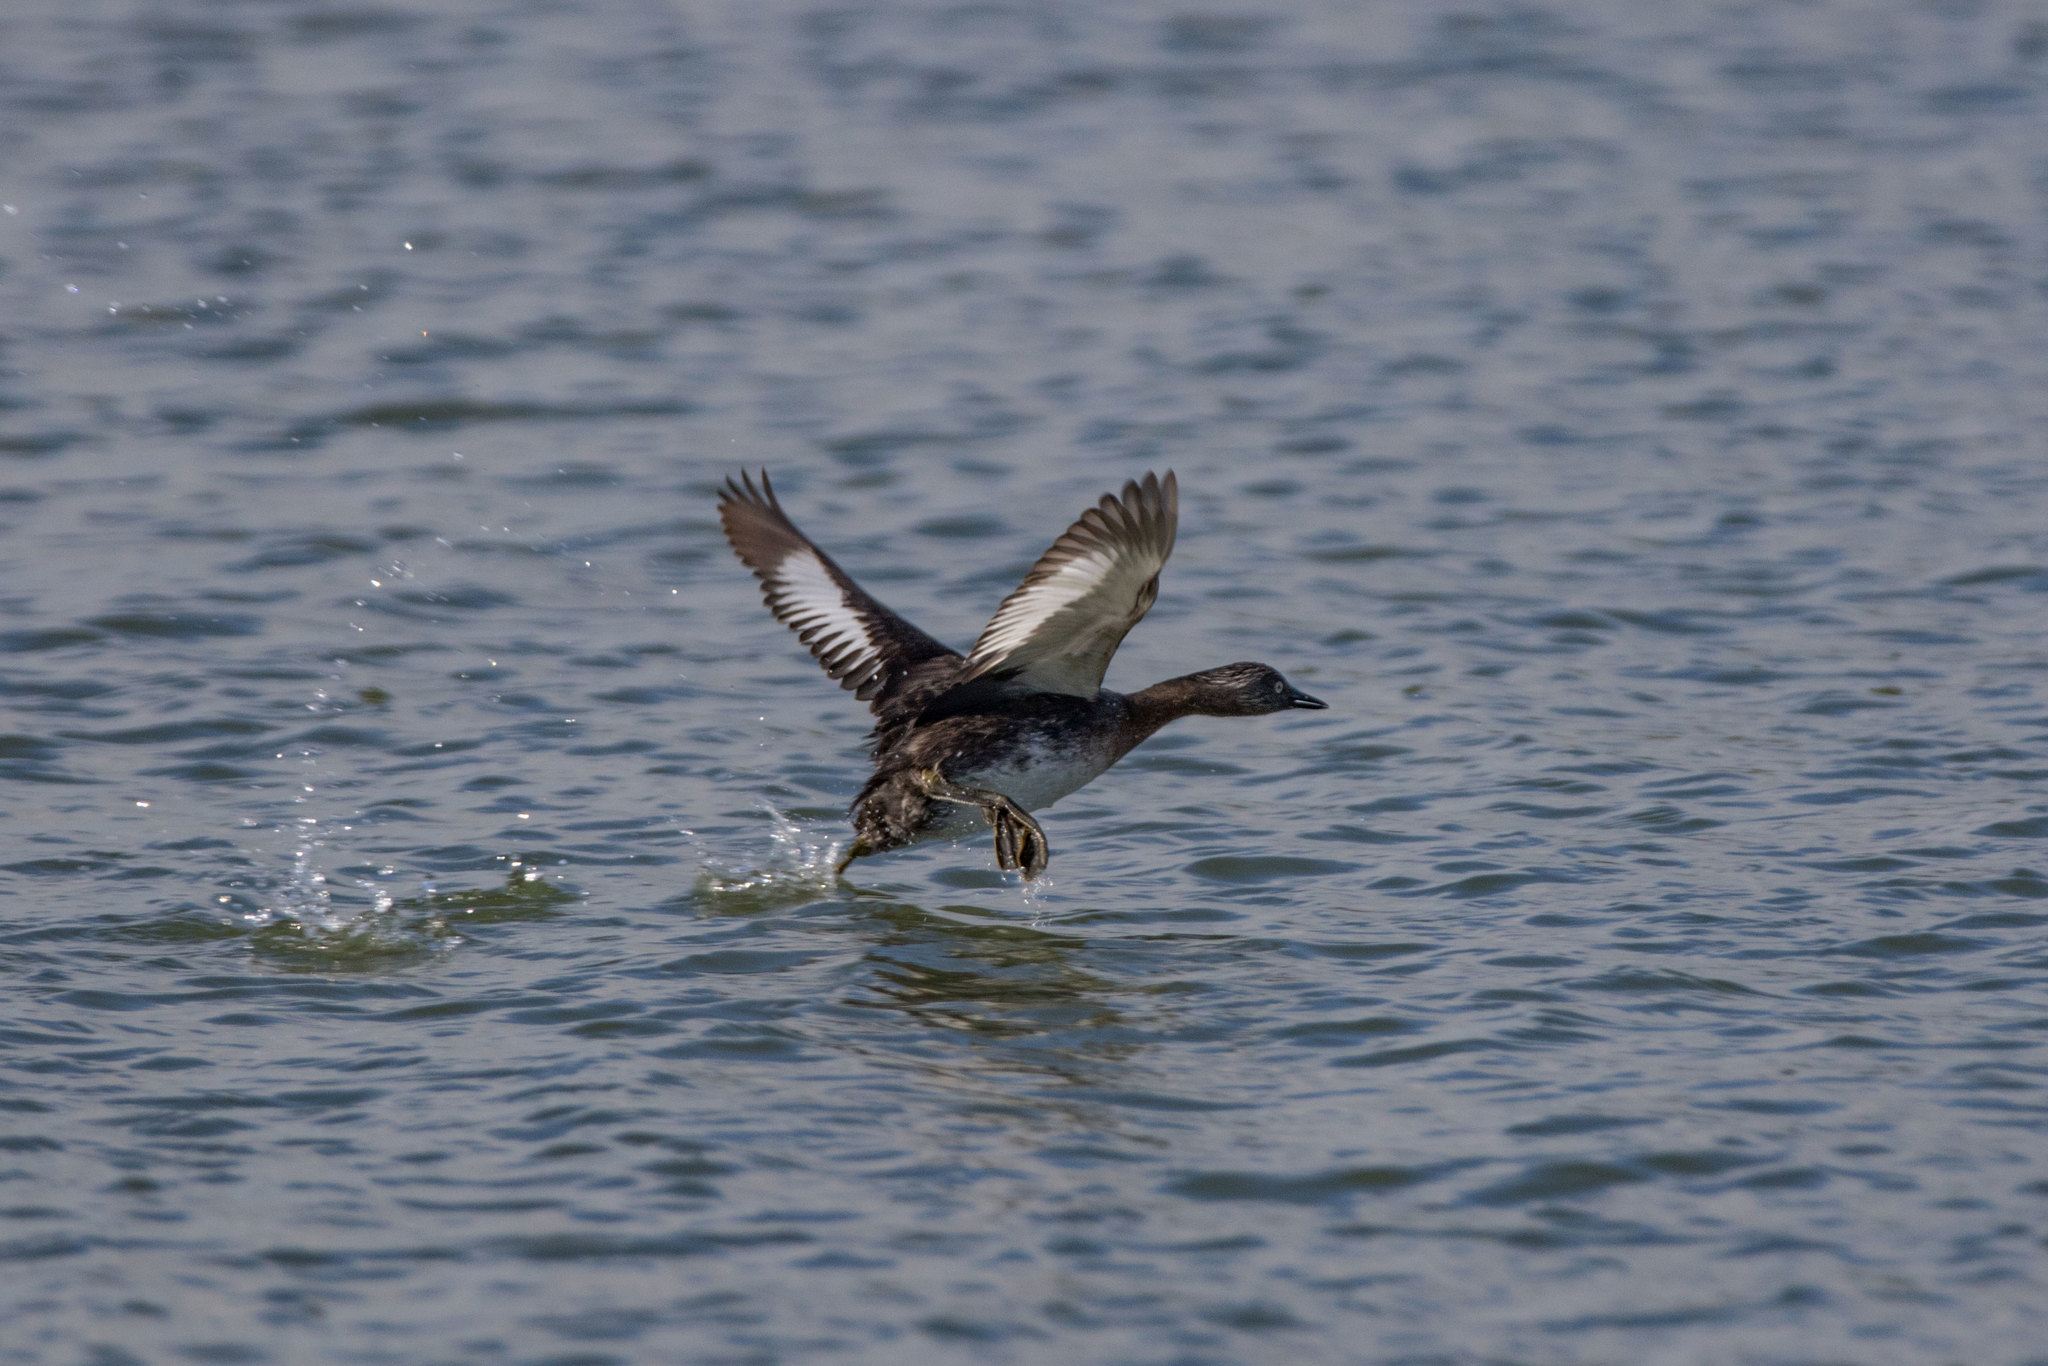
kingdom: Animalia
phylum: Chordata
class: Aves
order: Podicipediformes
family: Podicipedidae
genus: Poliocephalus
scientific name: Poliocephalus rufopectus
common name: New zealand grebe
